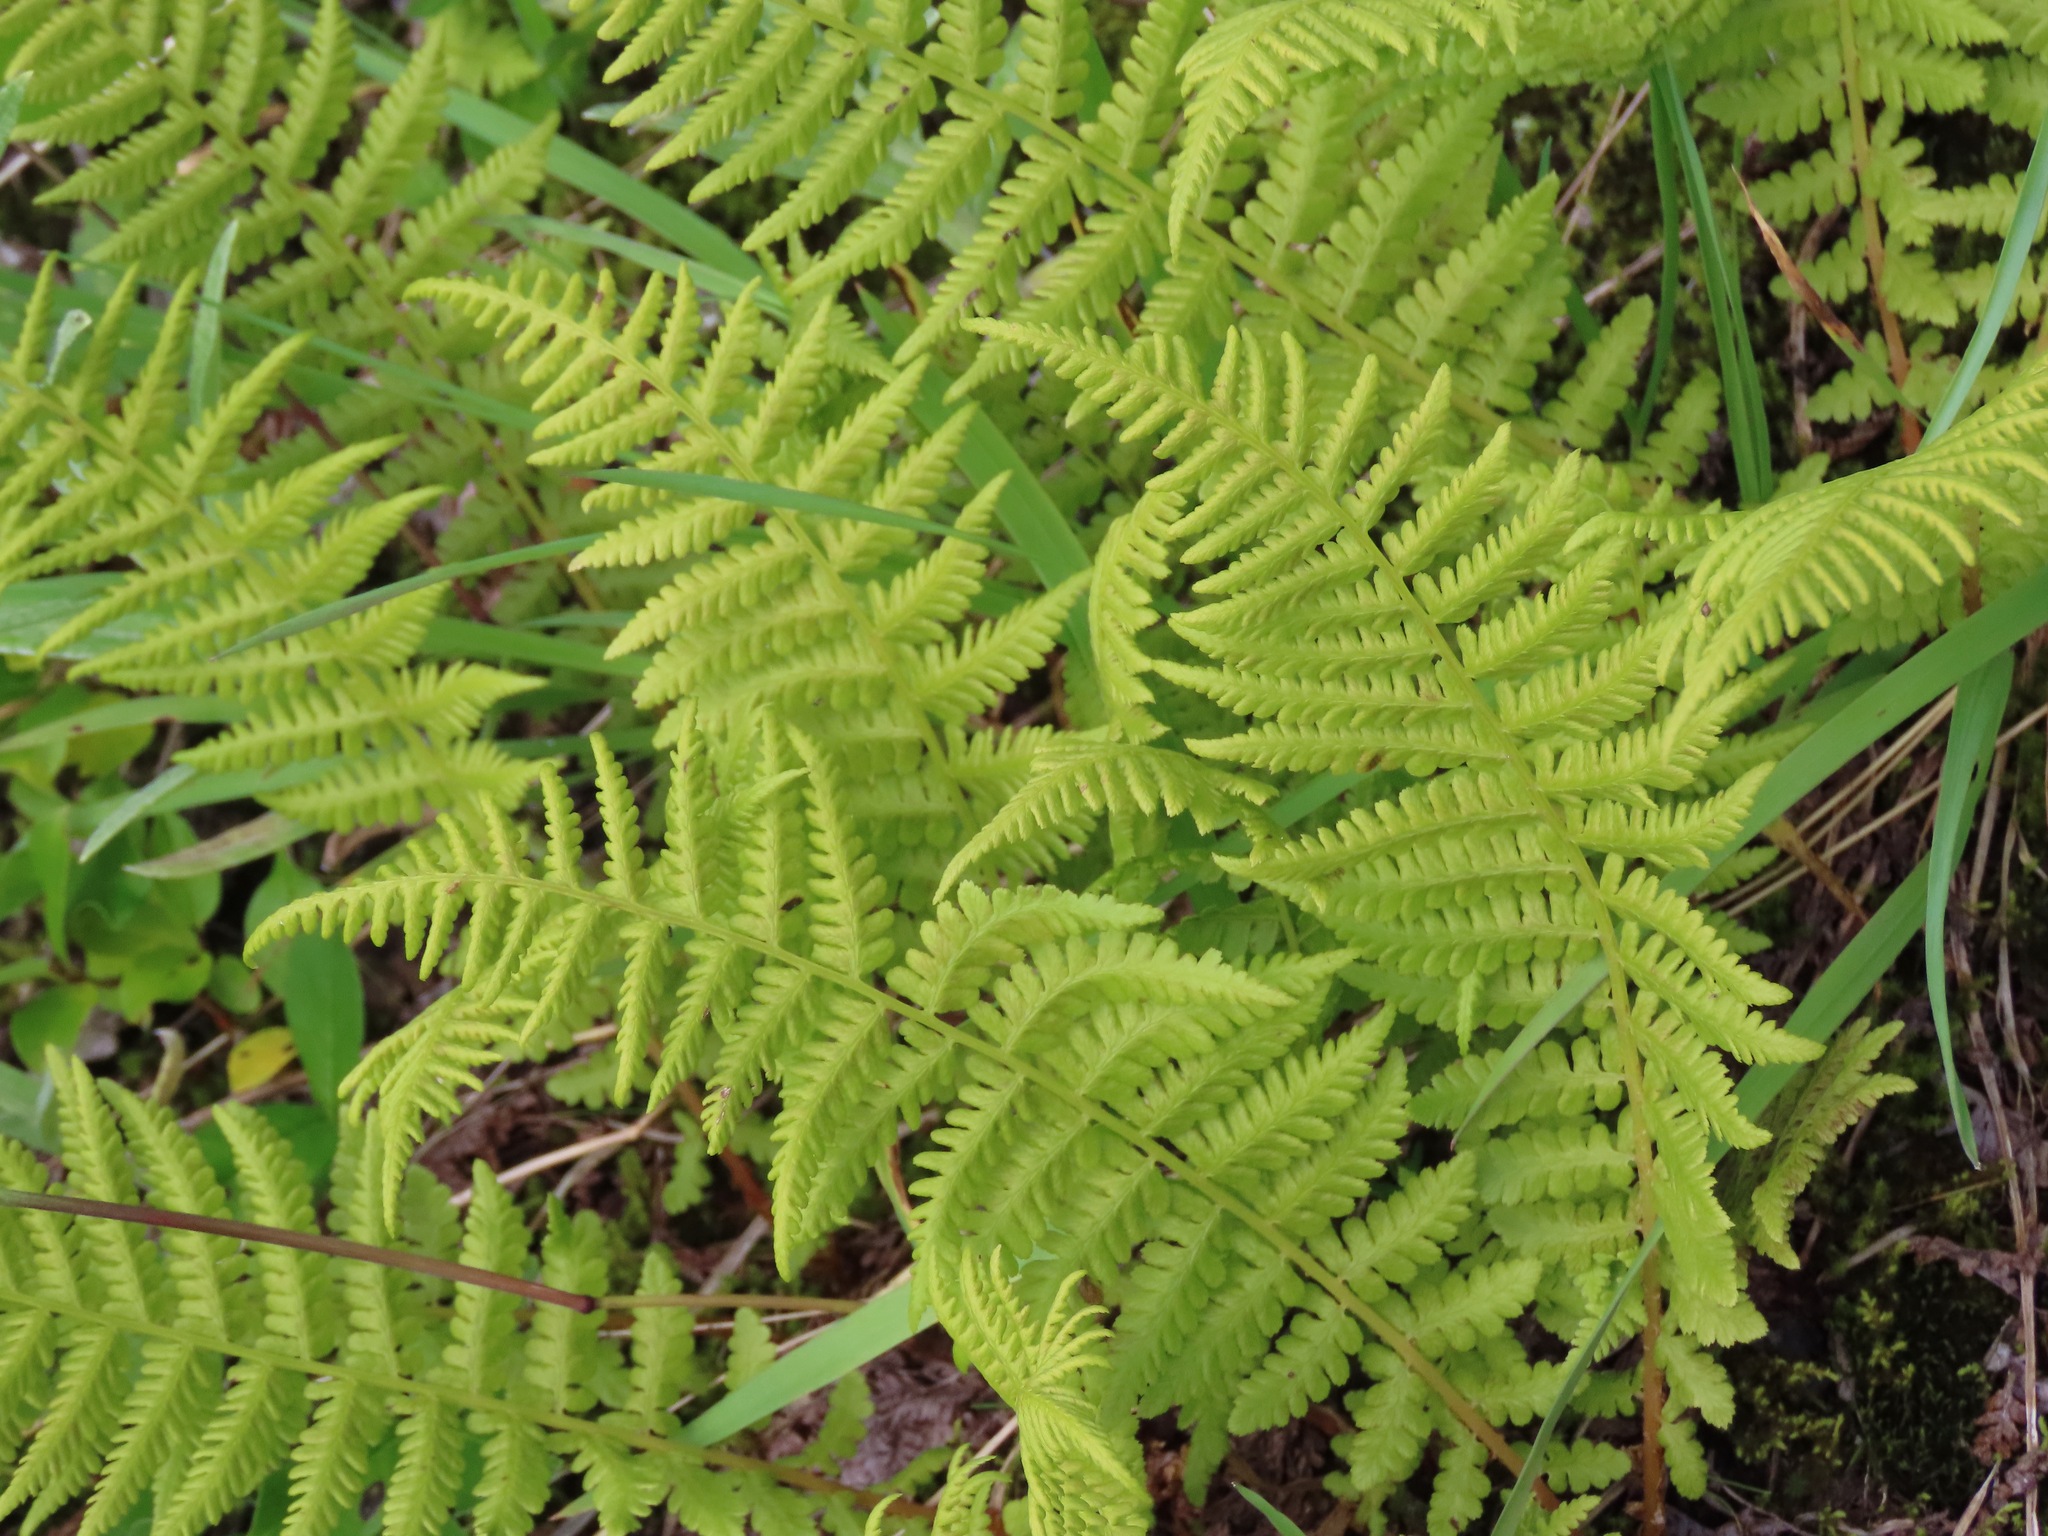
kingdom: Plantae
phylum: Tracheophyta
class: Polypodiopsida
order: Polypodiales
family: Athyriaceae
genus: Athyrium
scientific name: Athyrium filix-femina
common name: Lady fern
